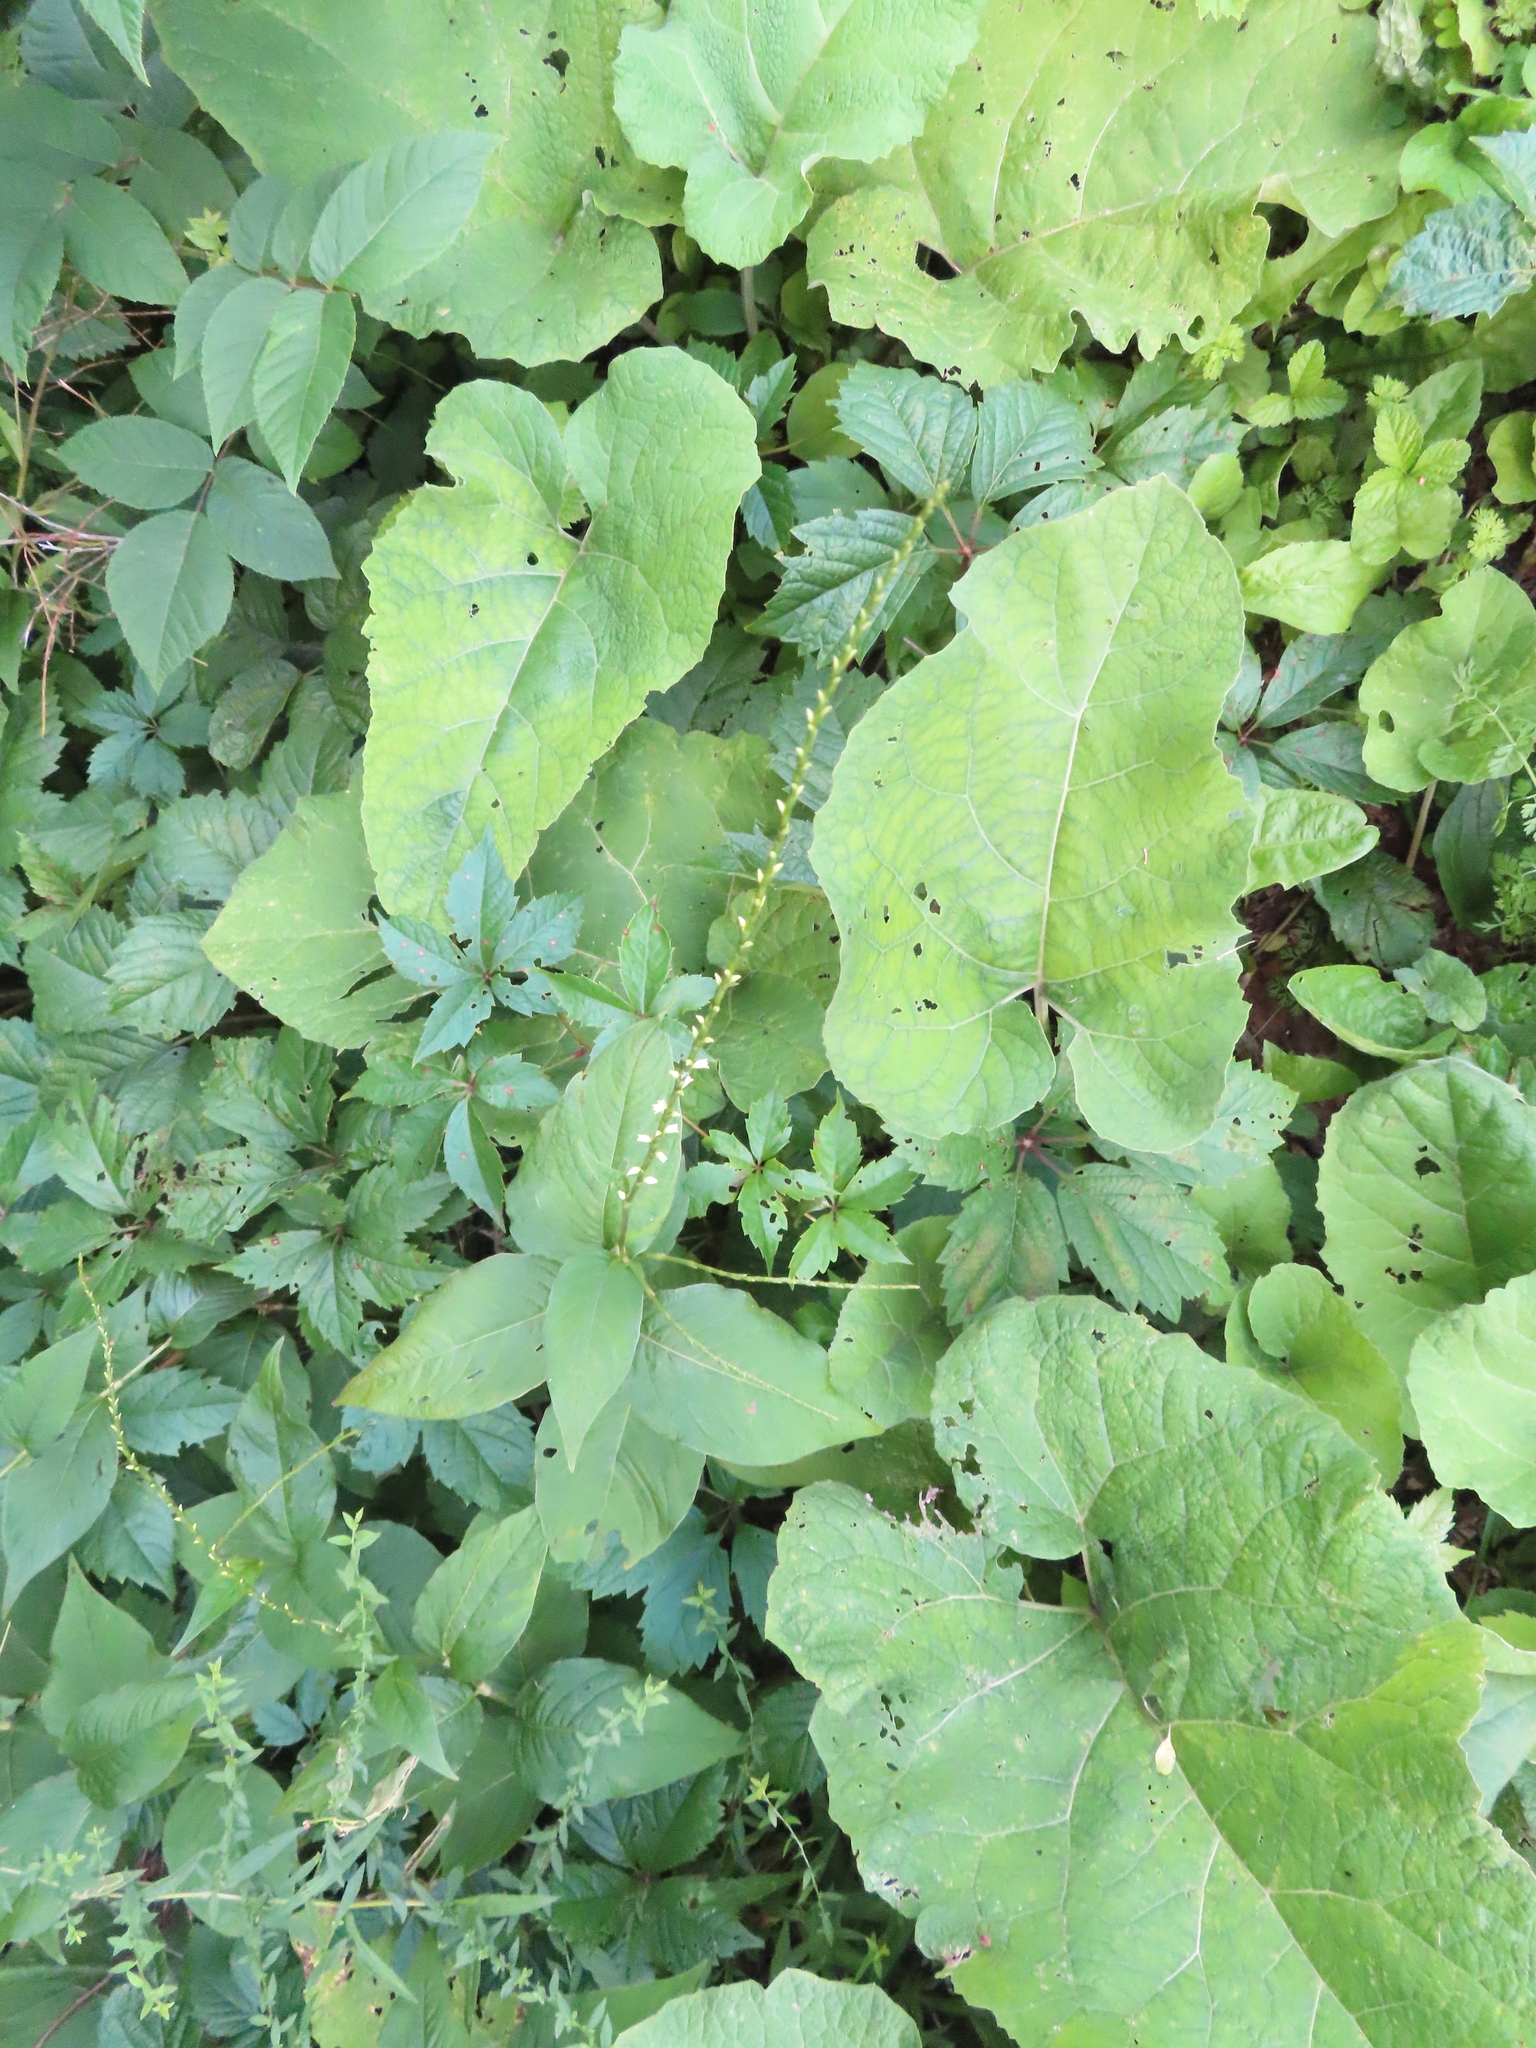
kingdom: Plantae
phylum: Tracheophyta
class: Magnoliopsida
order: Caryophyllales
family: Polygonaceae
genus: Persicaria
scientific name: Persicaria virginiana
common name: Jumpseed
